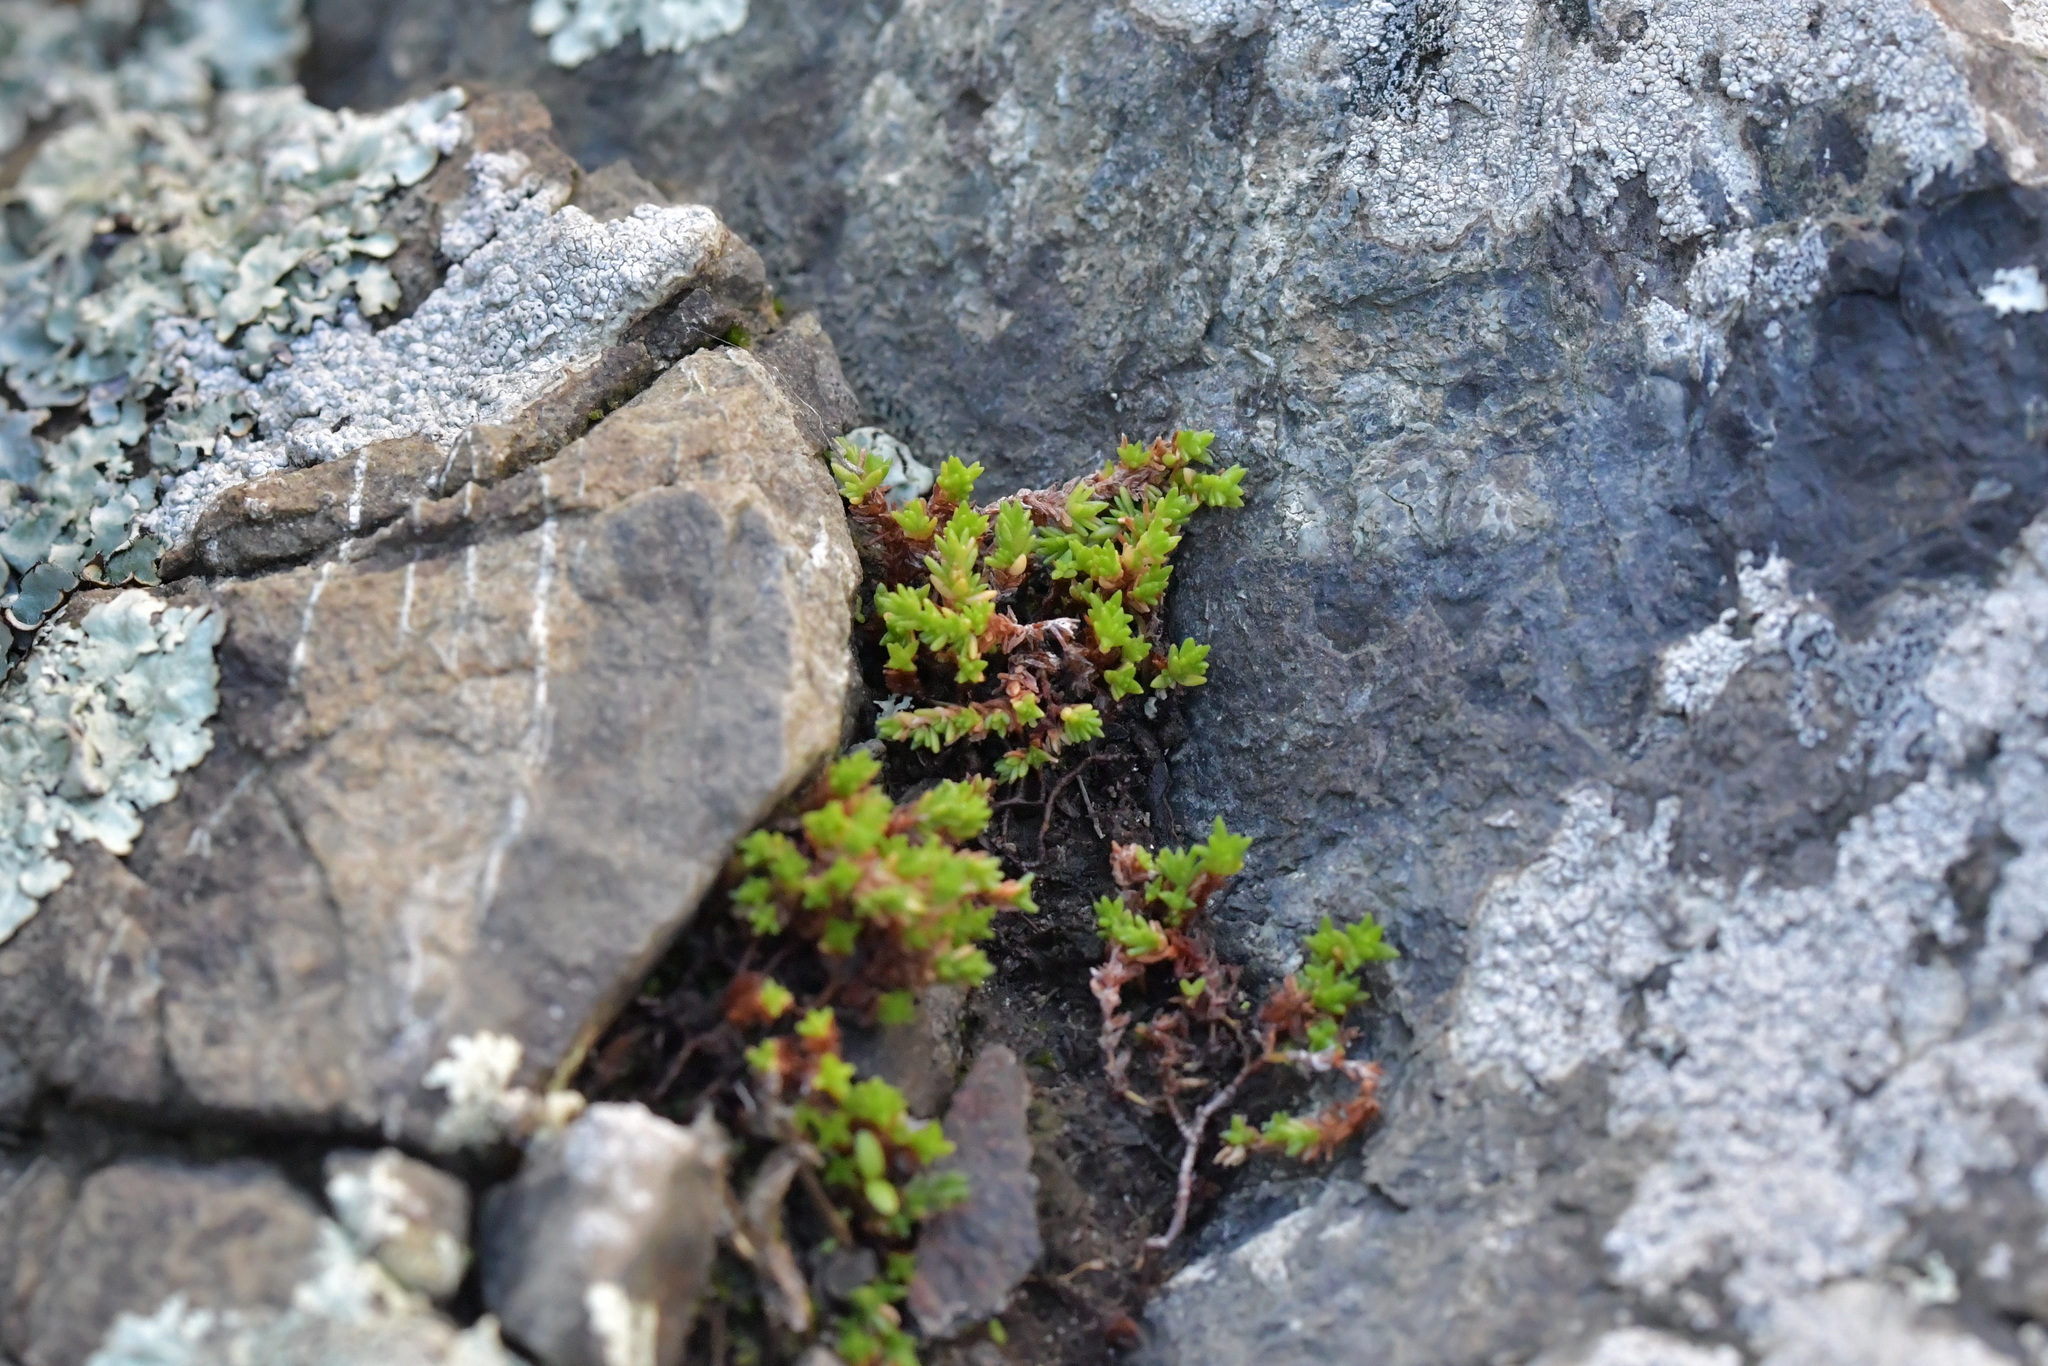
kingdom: Plantae
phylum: Tracheophyta
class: Magnoliopsida
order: Saxifragales
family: Crassulaceae
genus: Crassula
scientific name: Crassula sieberiana
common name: Siberian pygmyweed
